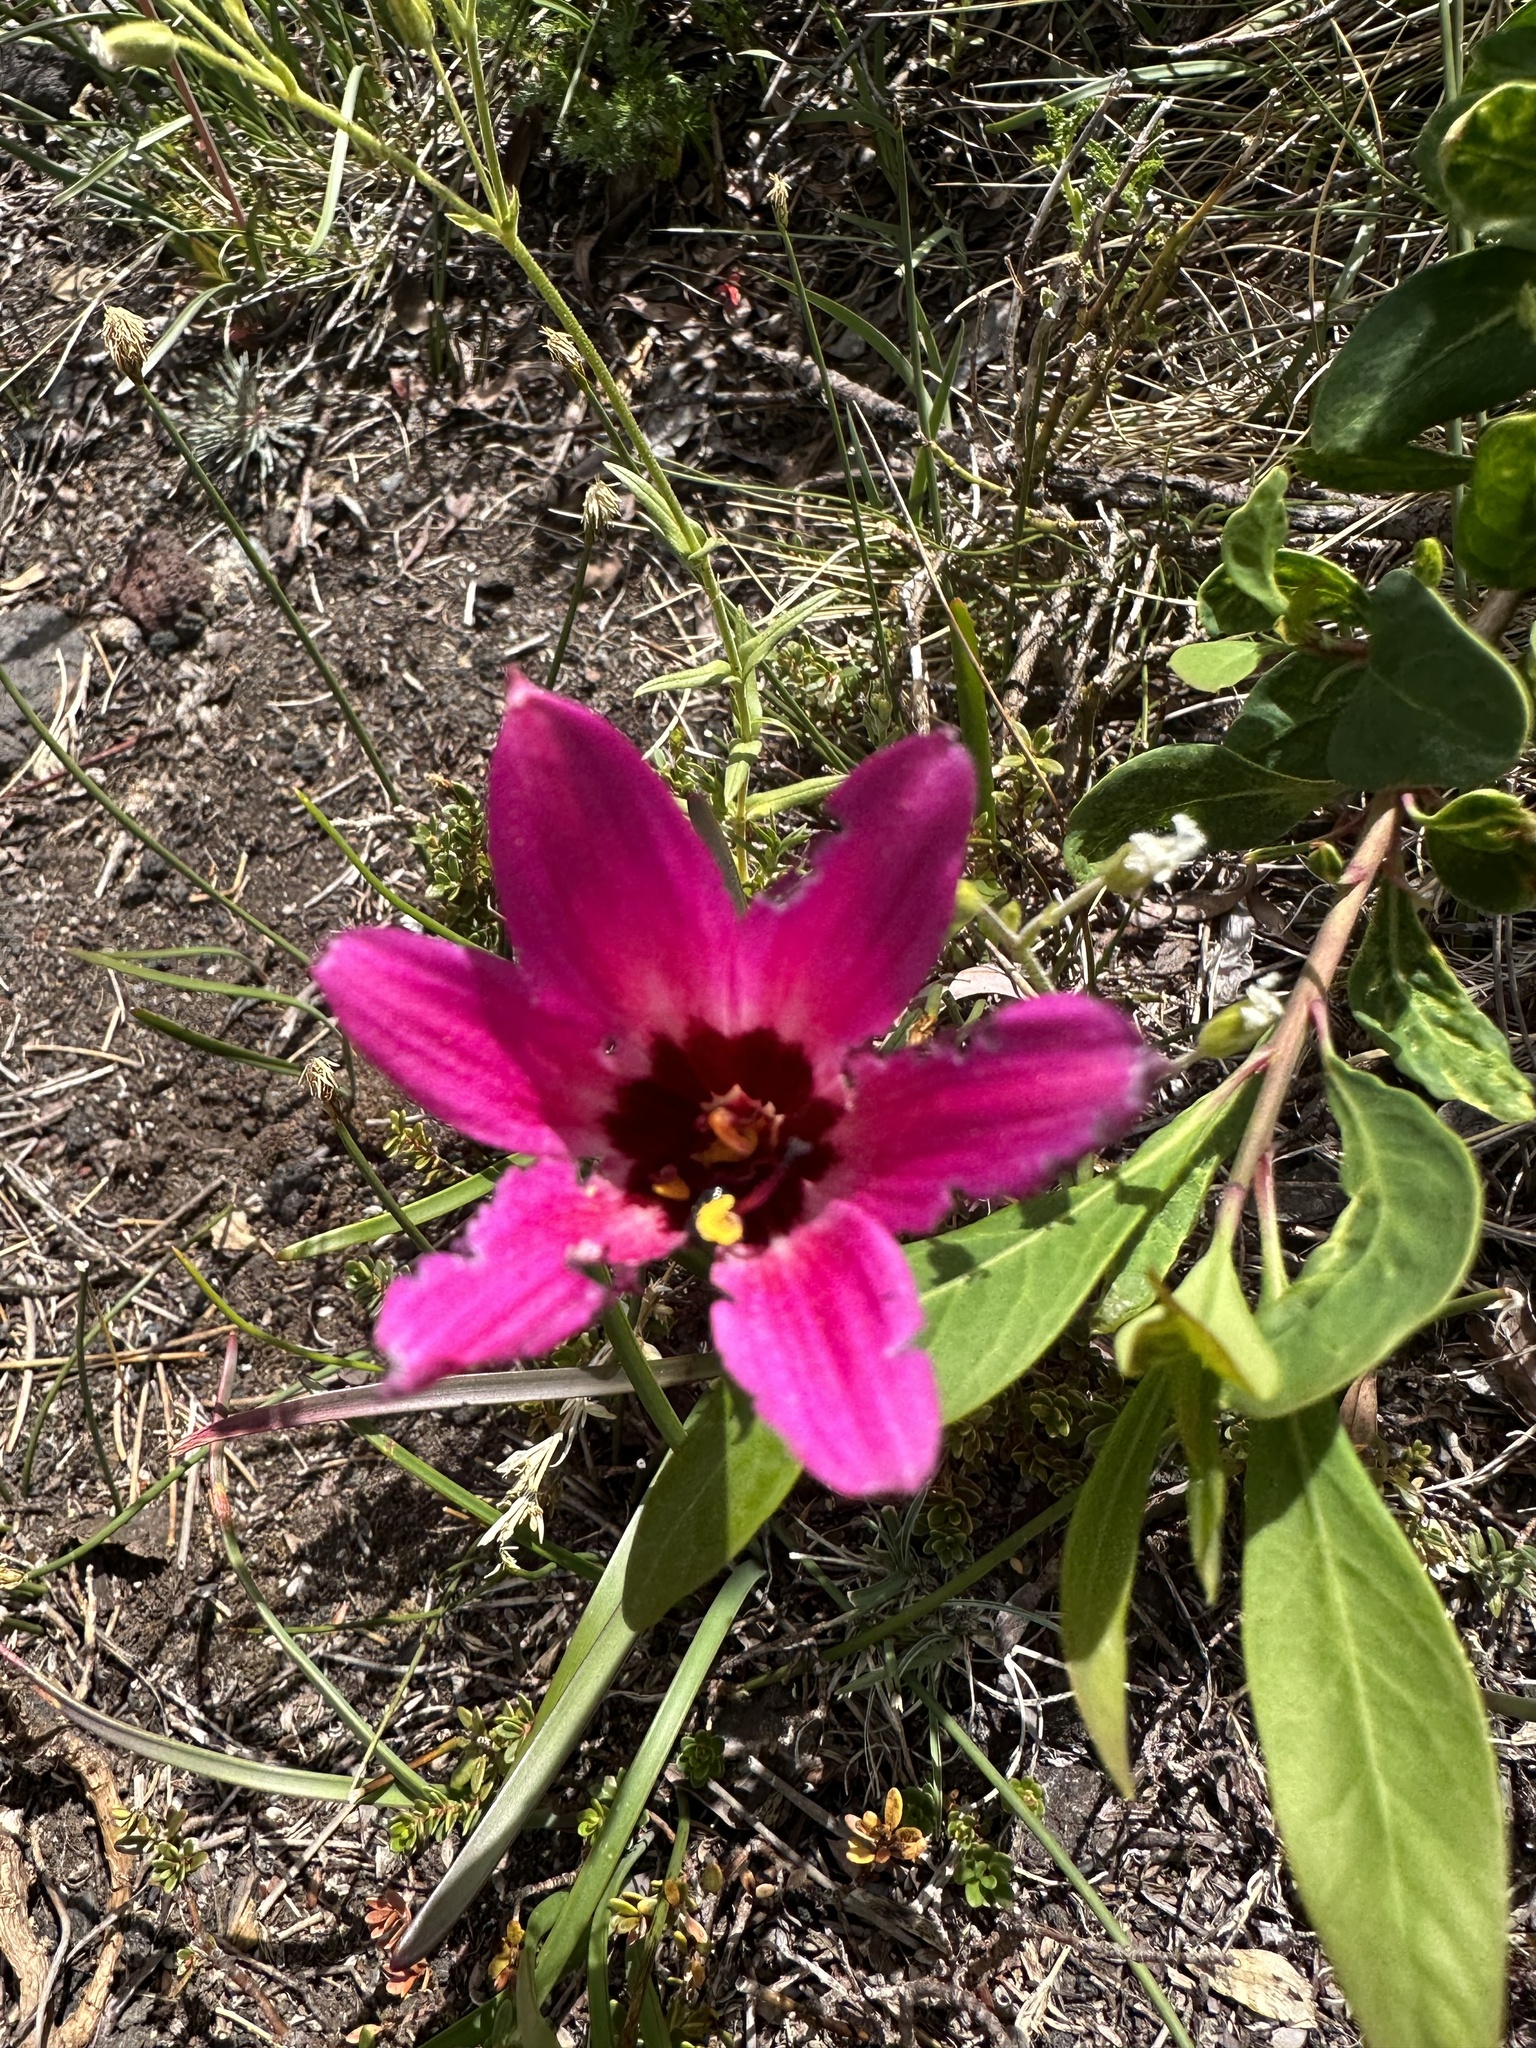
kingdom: Plantae
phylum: Tracheophyta
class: Liliopsida
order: Asparagales
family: Amaryllidaceae
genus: Rhodolirium
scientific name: Rhodolirium andicola
